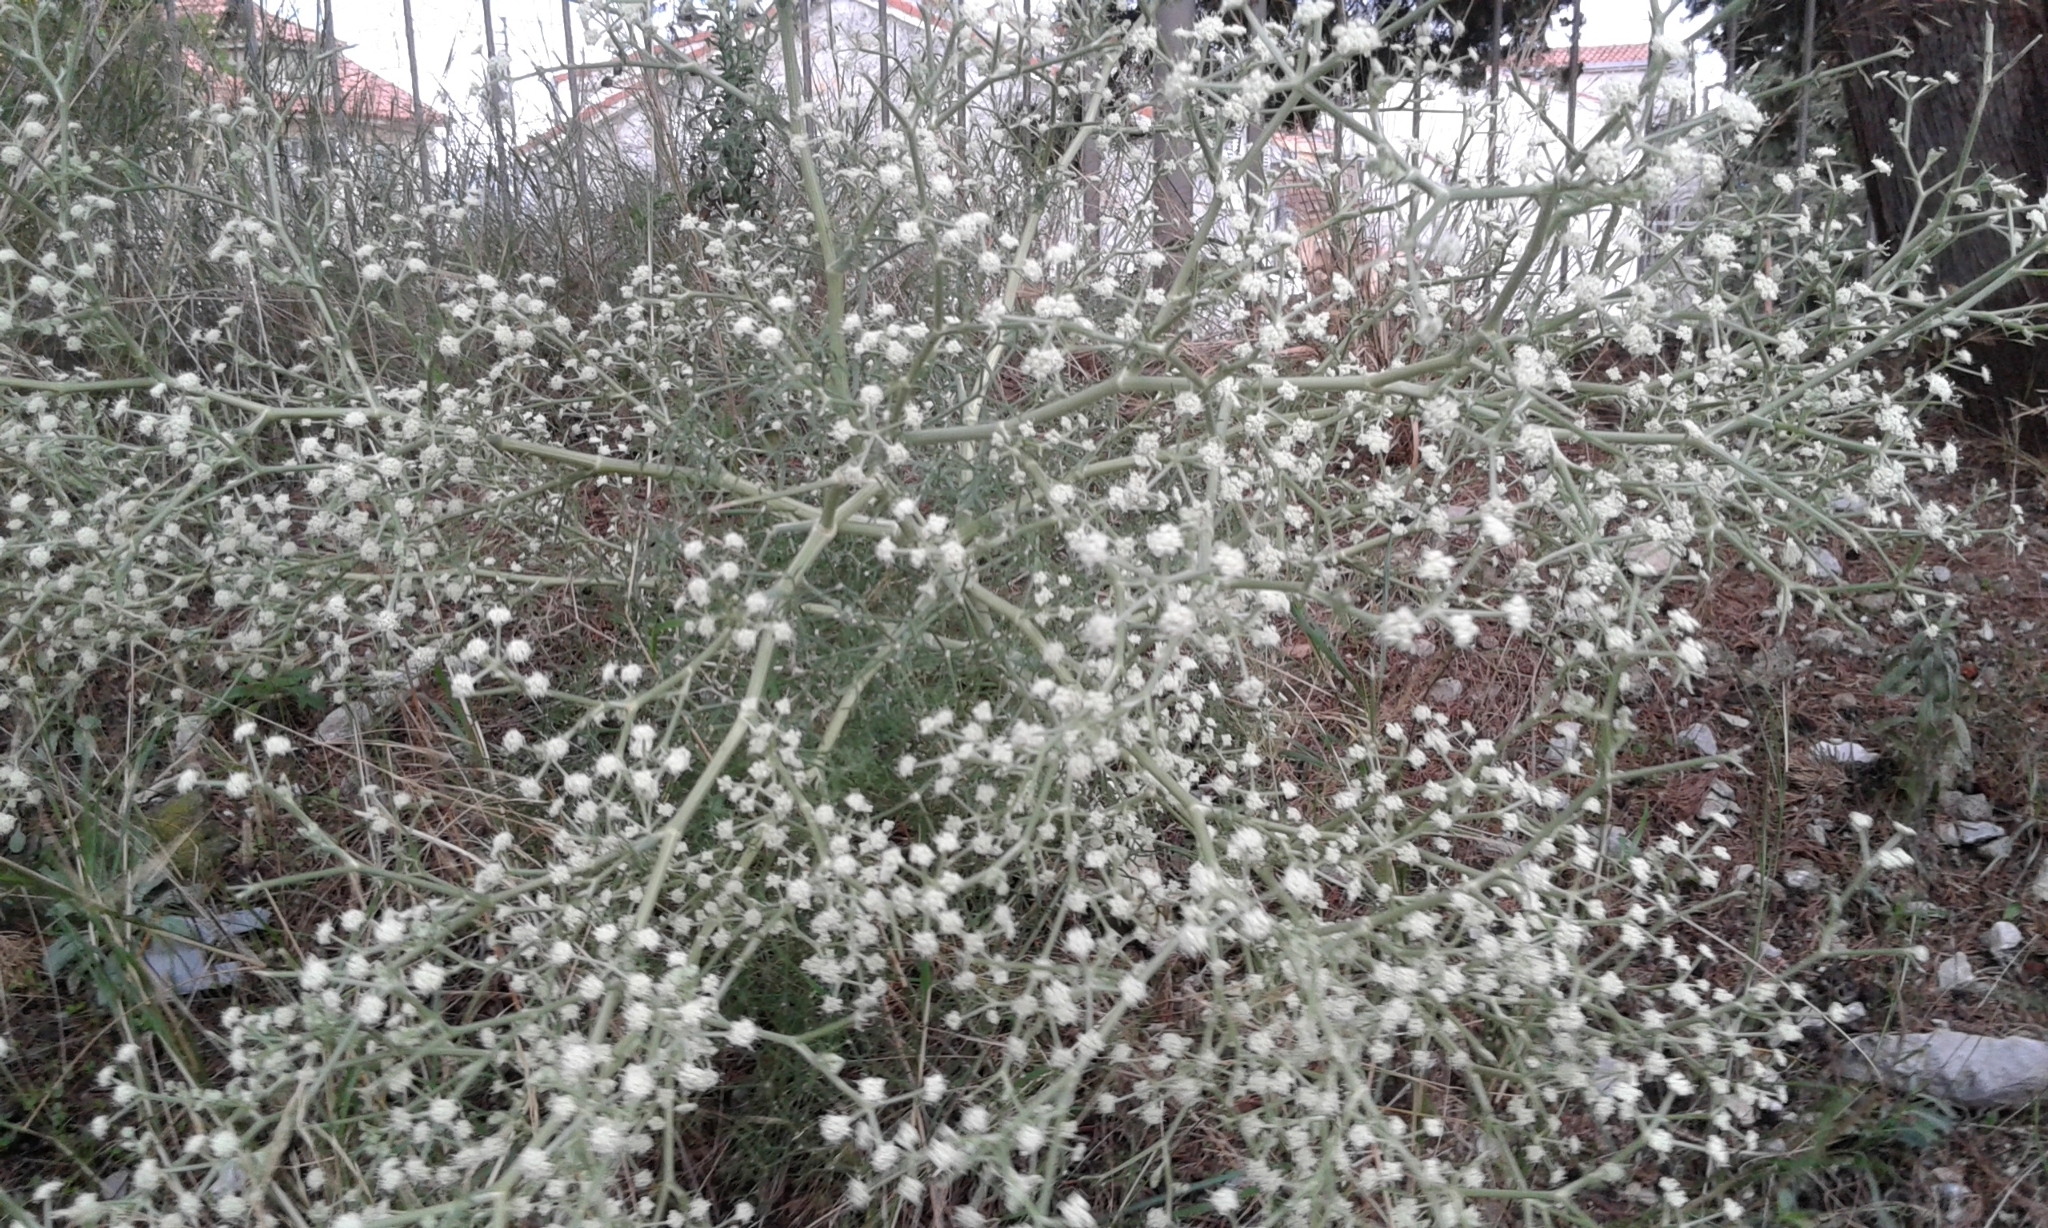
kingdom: Plantae
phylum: Tracheophyta
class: Magnoliopsida
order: Apiales
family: Apiaceae
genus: Seseli
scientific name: Seseli tortuosum
